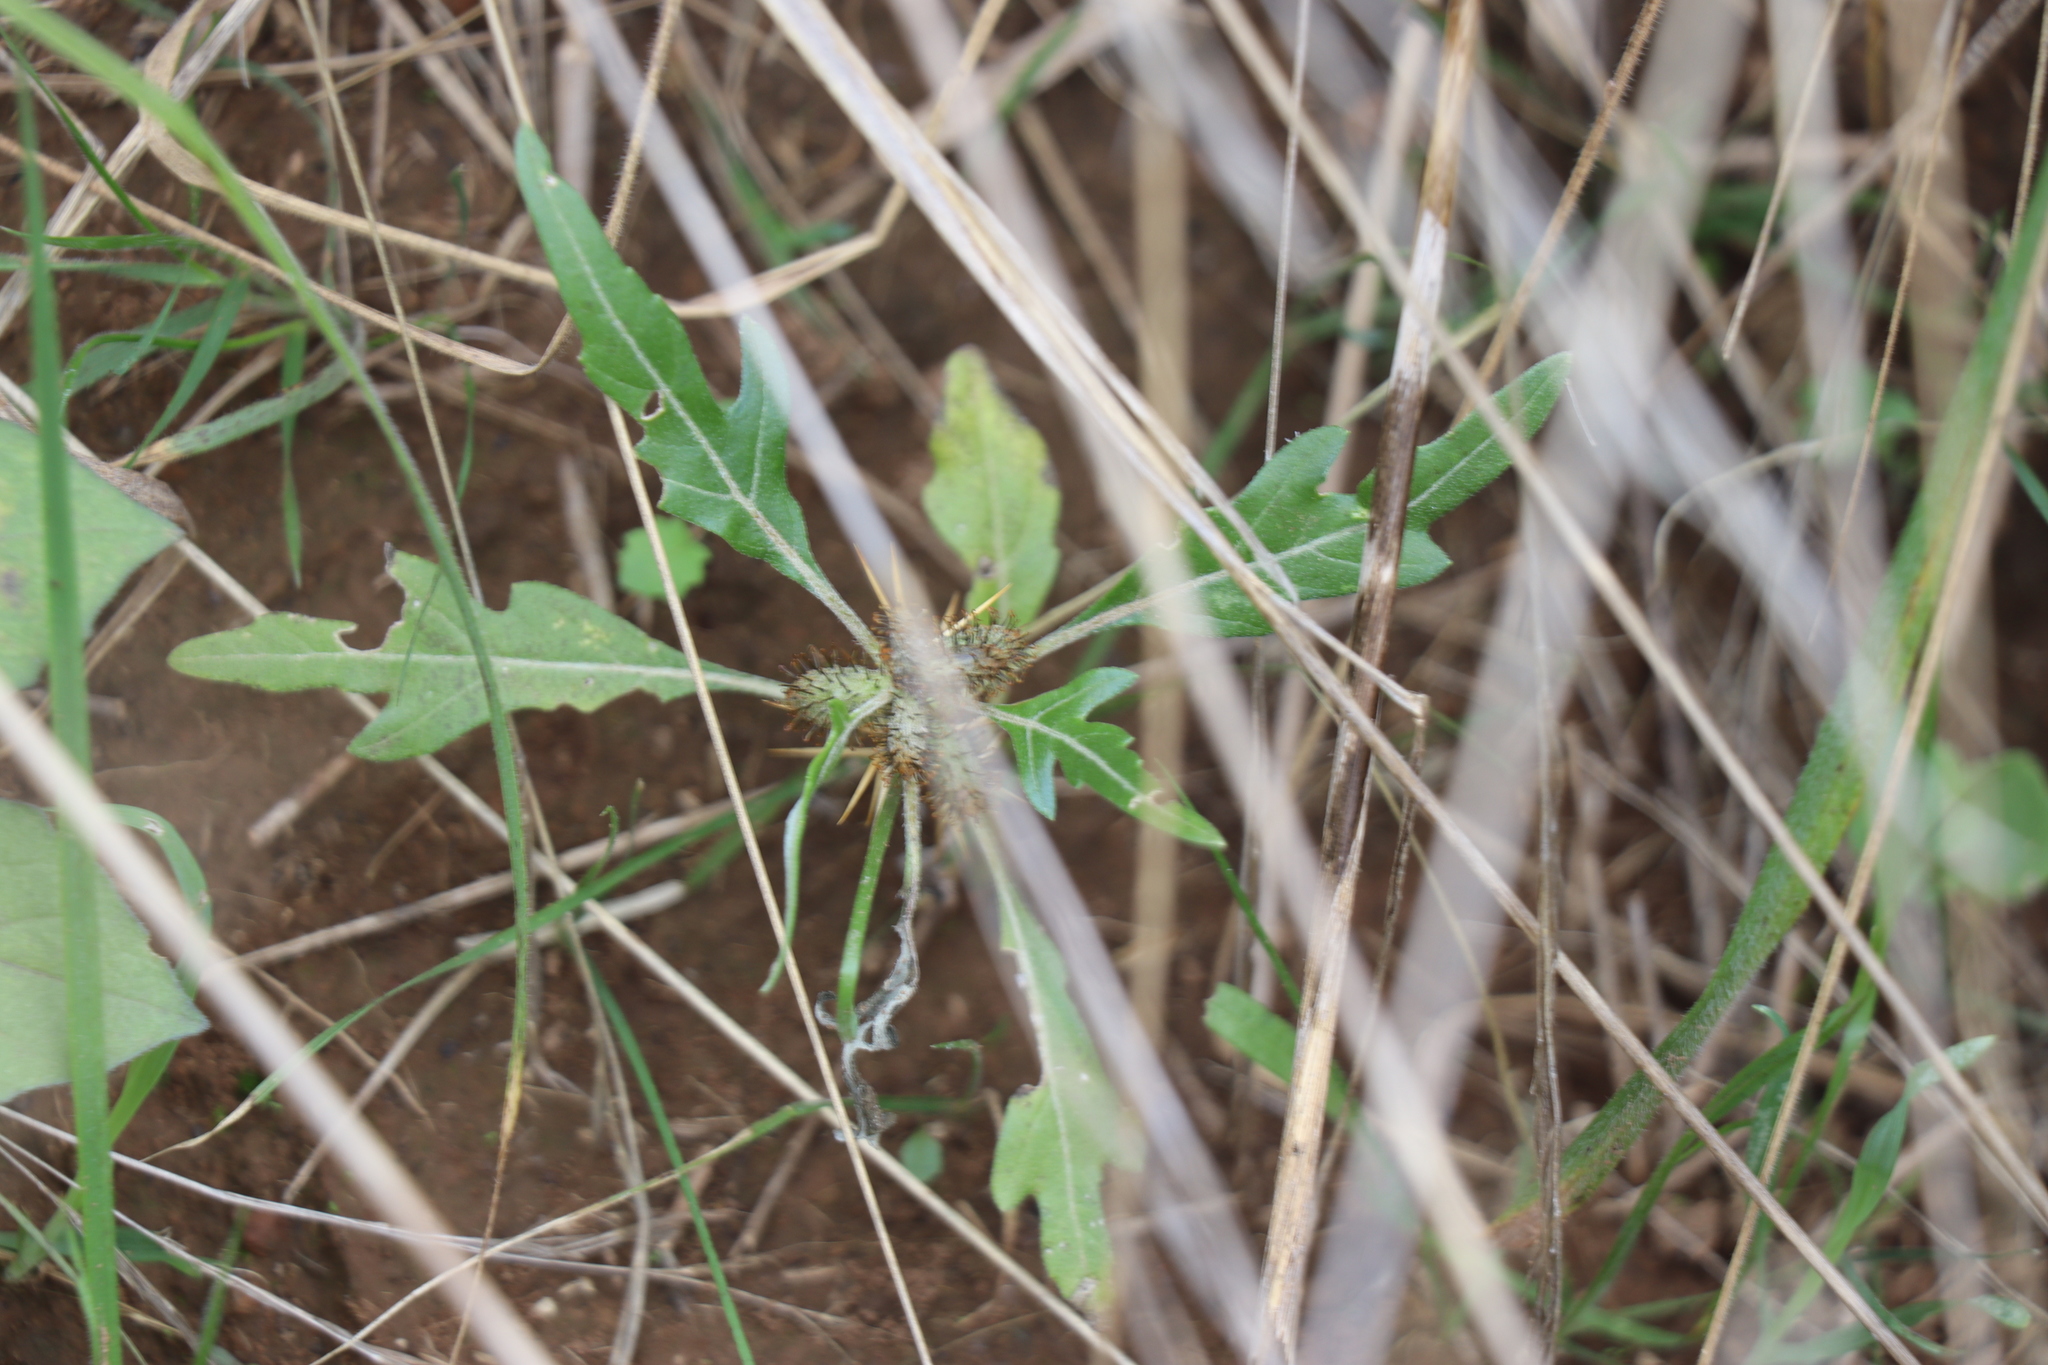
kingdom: Plantae
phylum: Tracheophyta
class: Magnoliopsida
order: Asterales
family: Asteraceae
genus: Xanthium
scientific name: Xanthium spinosum
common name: Spiny cocklebur
